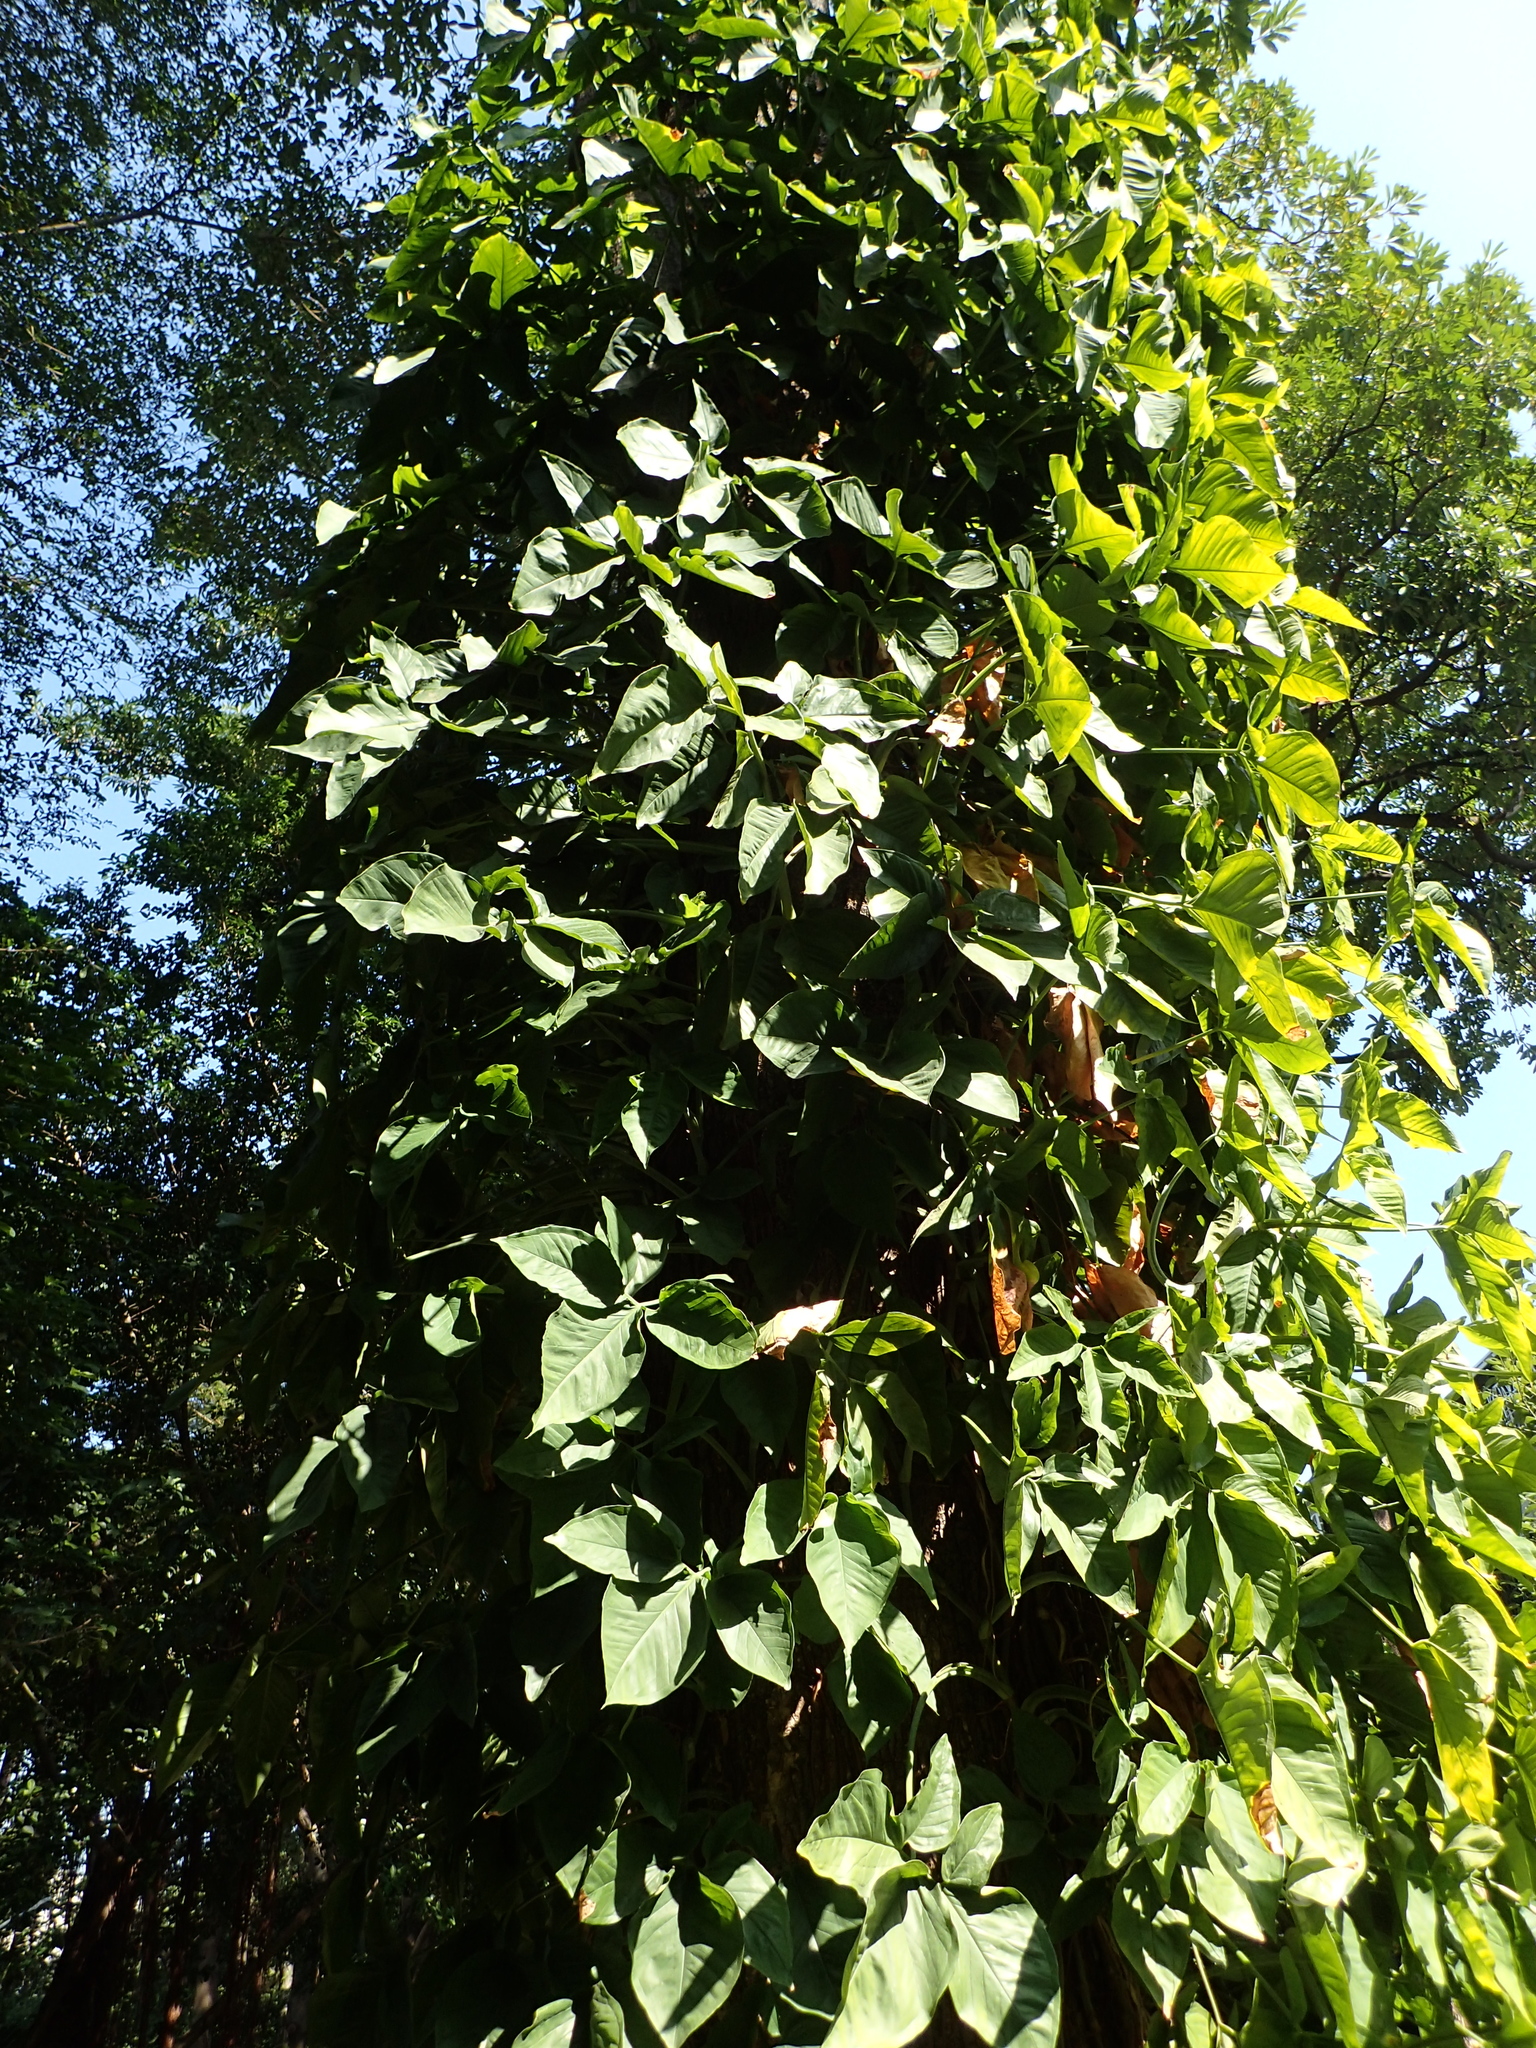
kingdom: Plantae
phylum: Tracheophyta
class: Liliopsida
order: Alismatales
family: Araceae
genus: Syngonium
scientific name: Syngonium podophyllum
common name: American evergreen
